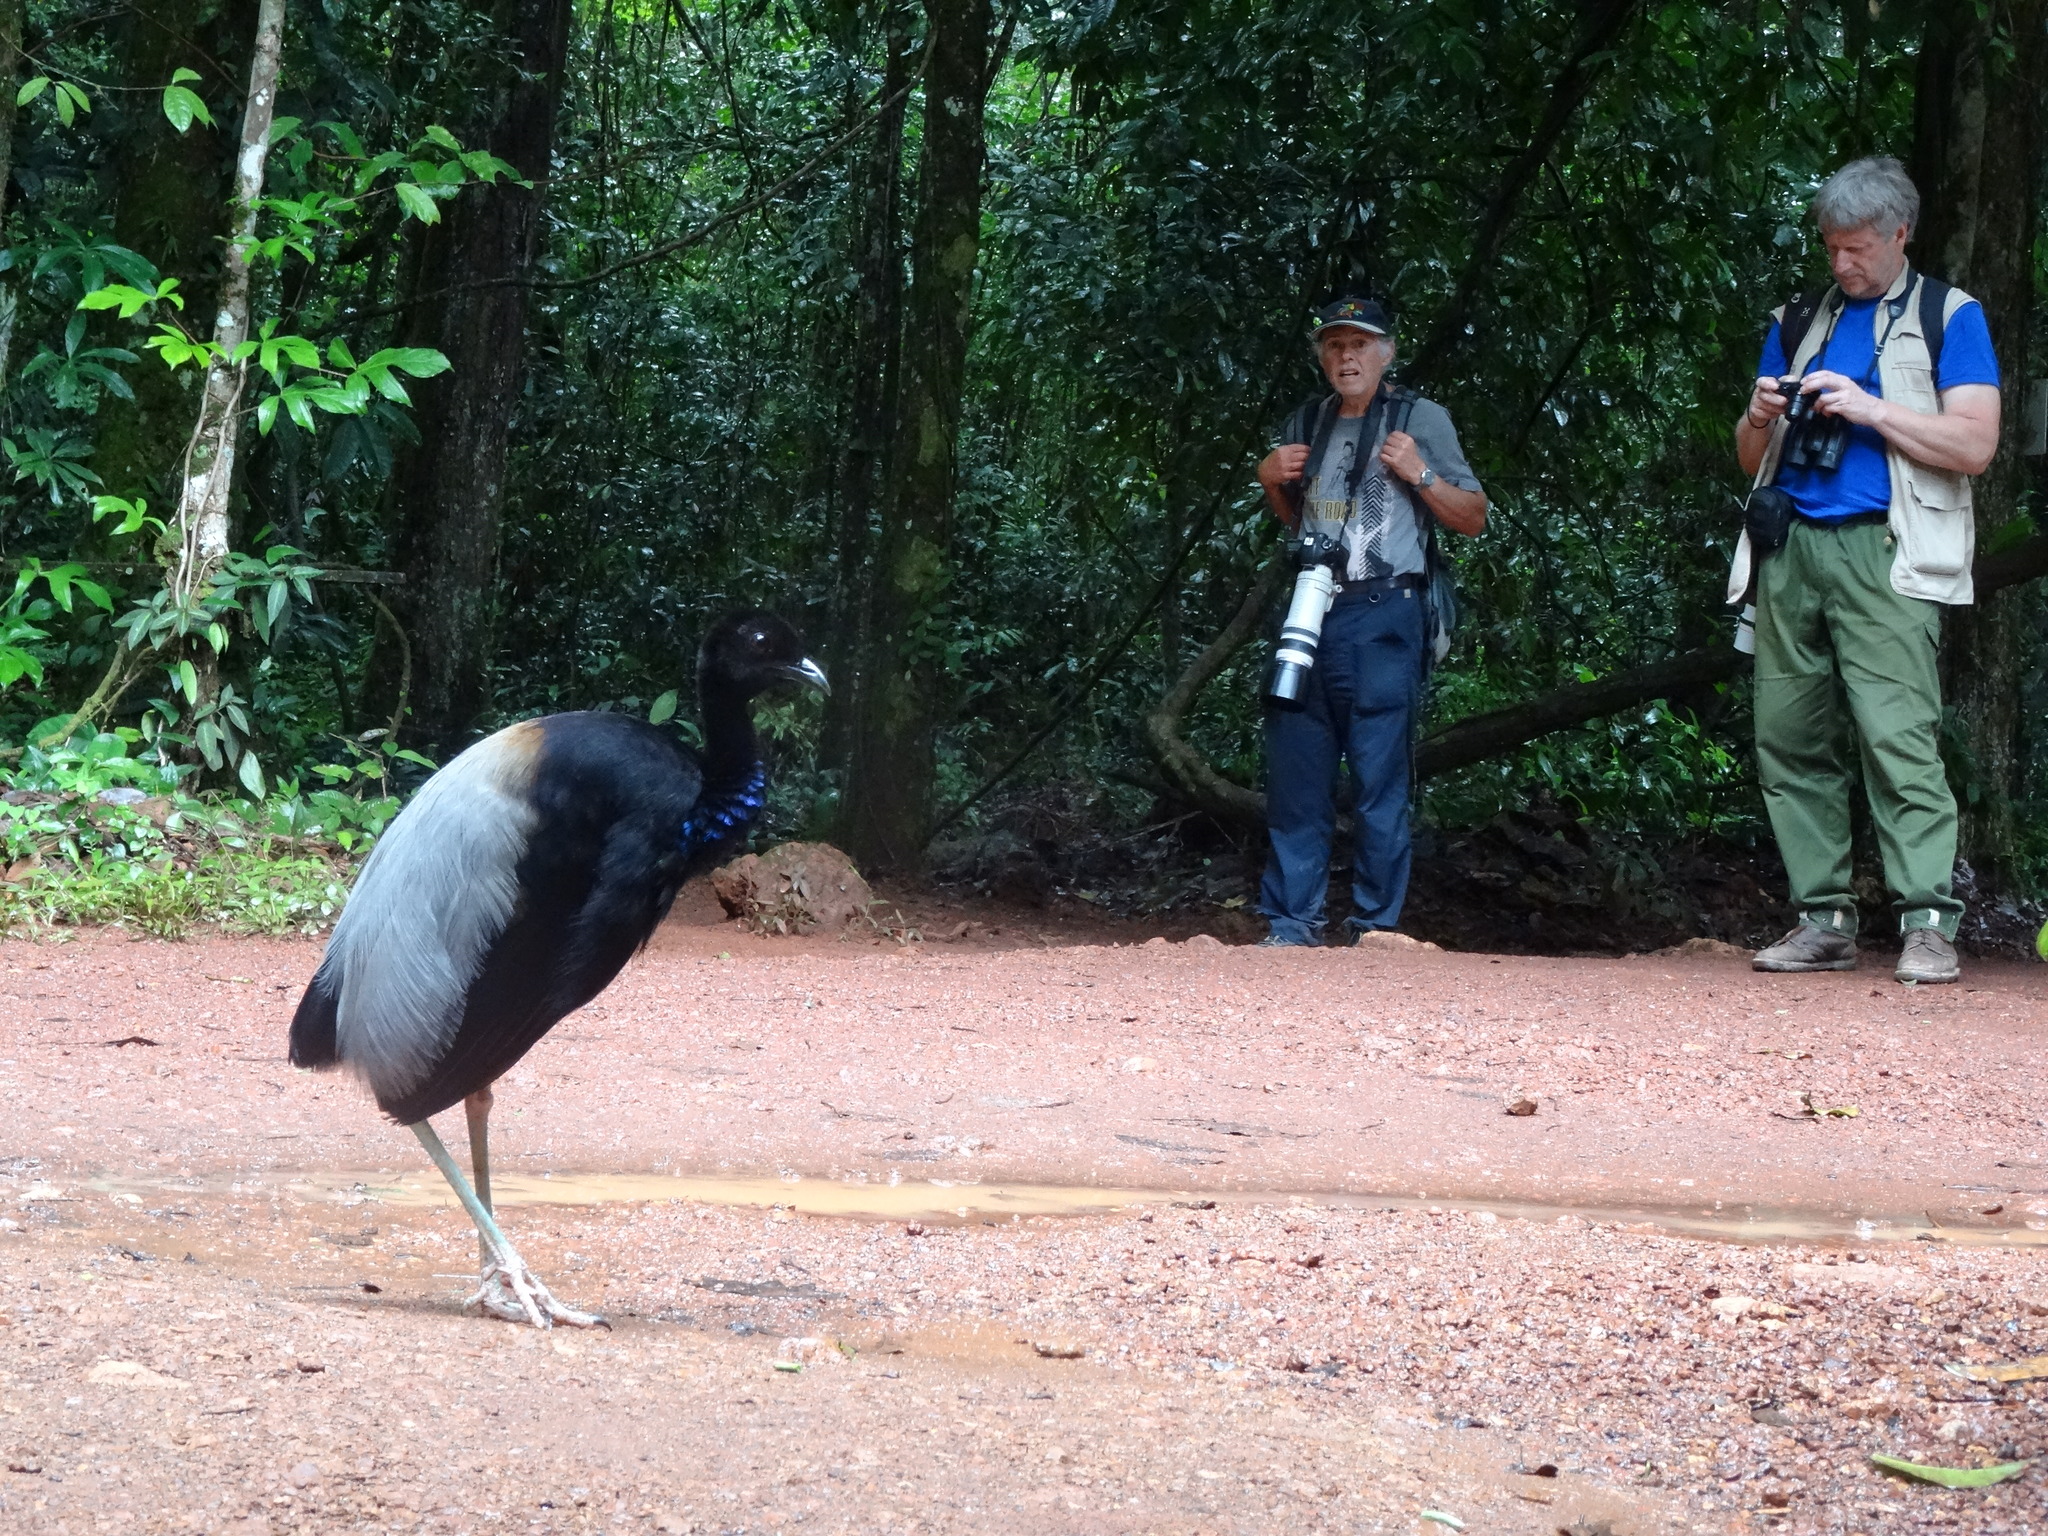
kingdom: Animalia
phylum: Chordata
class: Aves
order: Gruiformes
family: Psophiidae
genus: Psophia
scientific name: Psophia crepitans
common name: Grey-winged trumpeter
